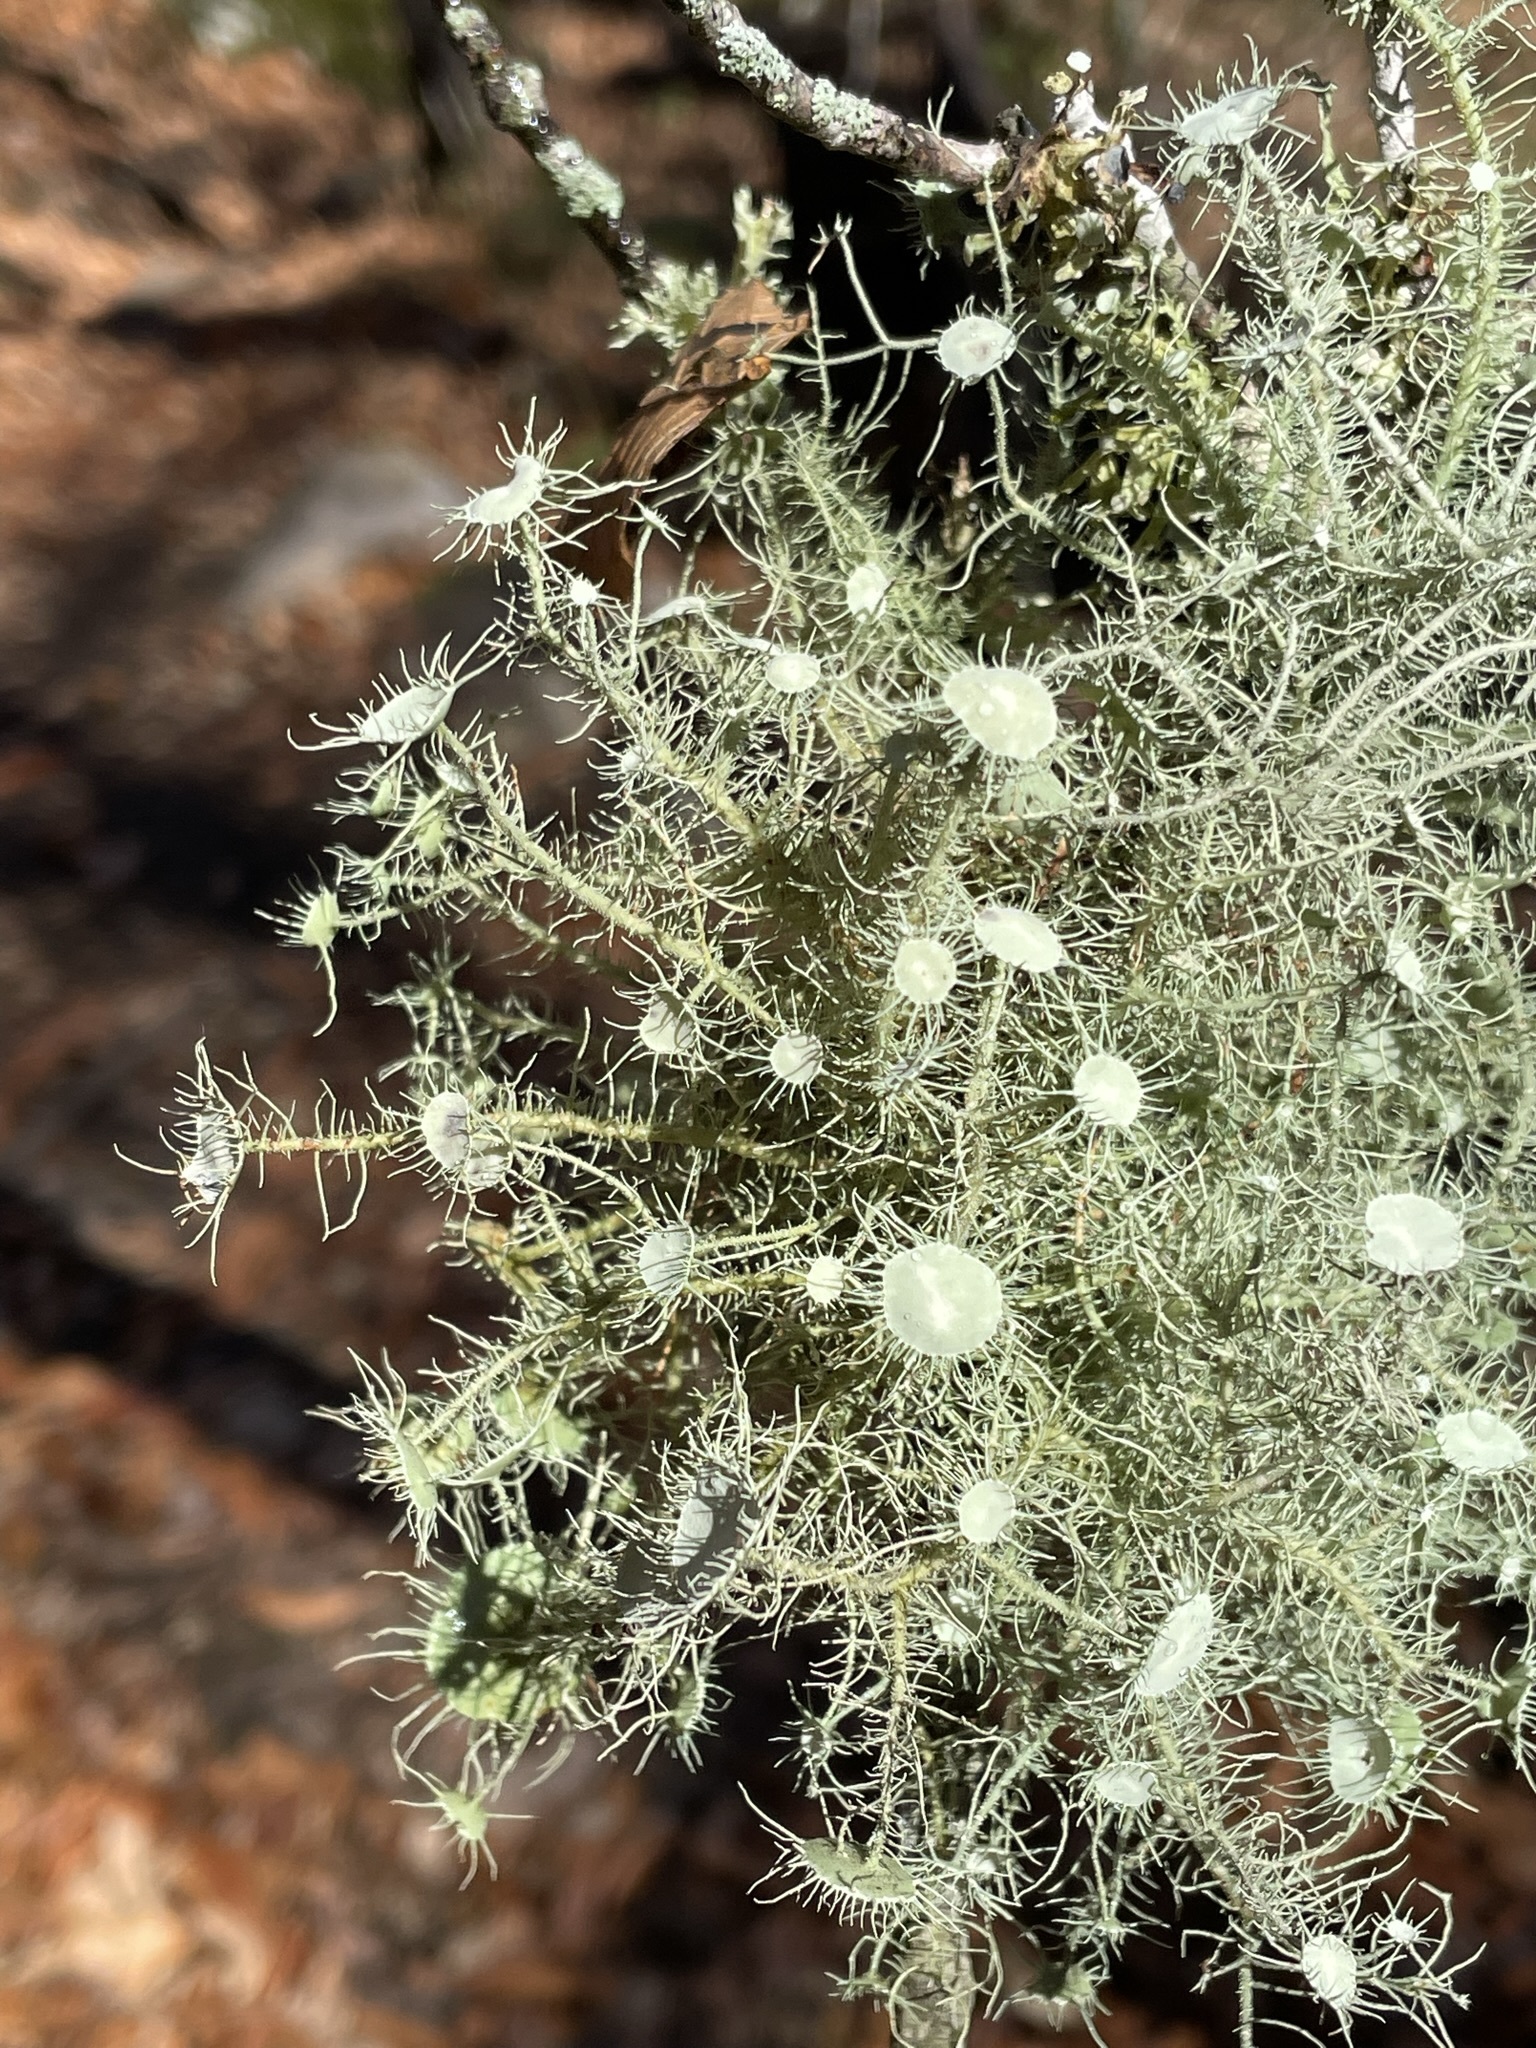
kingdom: Fungi
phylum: Ascomycota
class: Lecanoromycetes
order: Lecanorales
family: Parmeliaceae
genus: Usnea
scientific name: Usnea strigosa
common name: Bushy beard lichen
